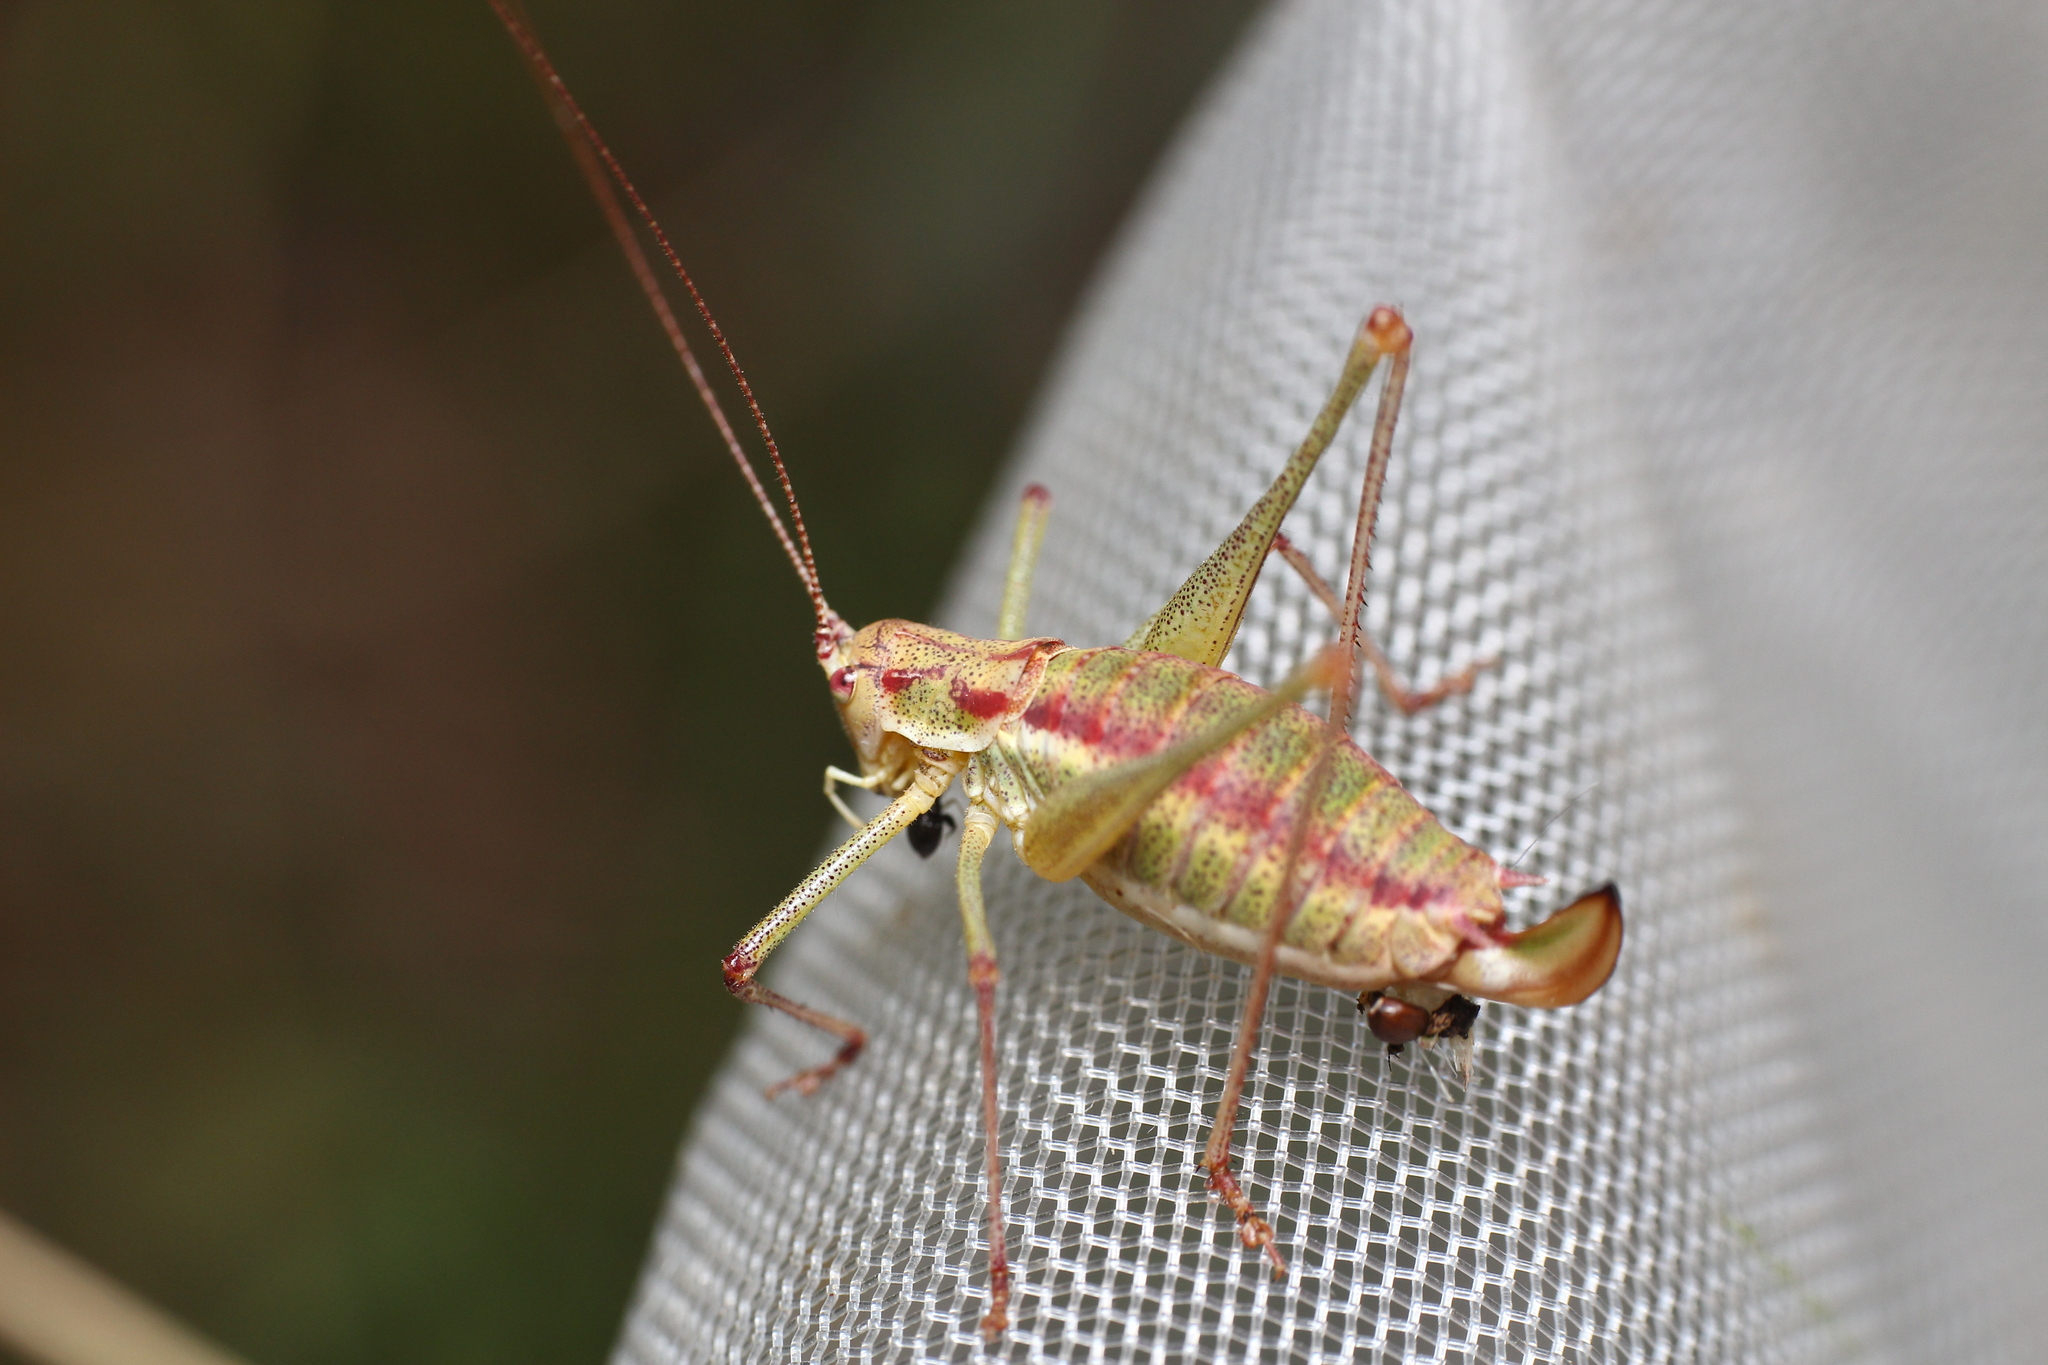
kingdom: Animalia
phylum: Arthropoda
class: Insecta
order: Orthoptera
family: Tettigoniidae
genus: Leptophyes
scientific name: Leptophyes albovittata
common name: Striped bush-cricket
